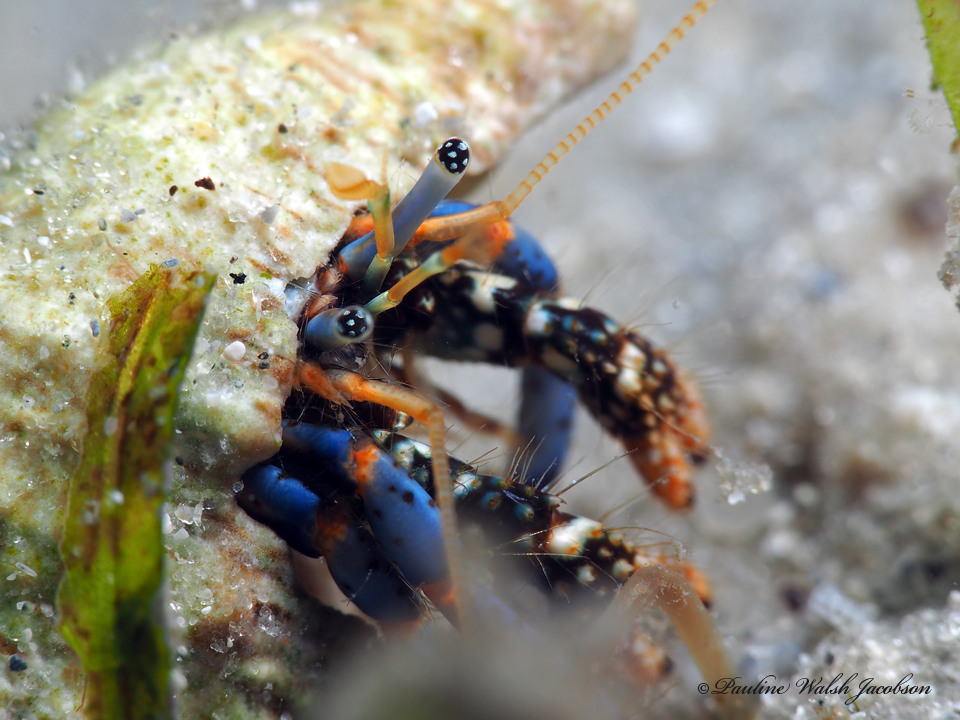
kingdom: Animalia
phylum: Arthropoda
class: Malacostraca
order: Decapoda
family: Diogenidae
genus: Clibanarius
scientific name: Clibanarius tricolor
